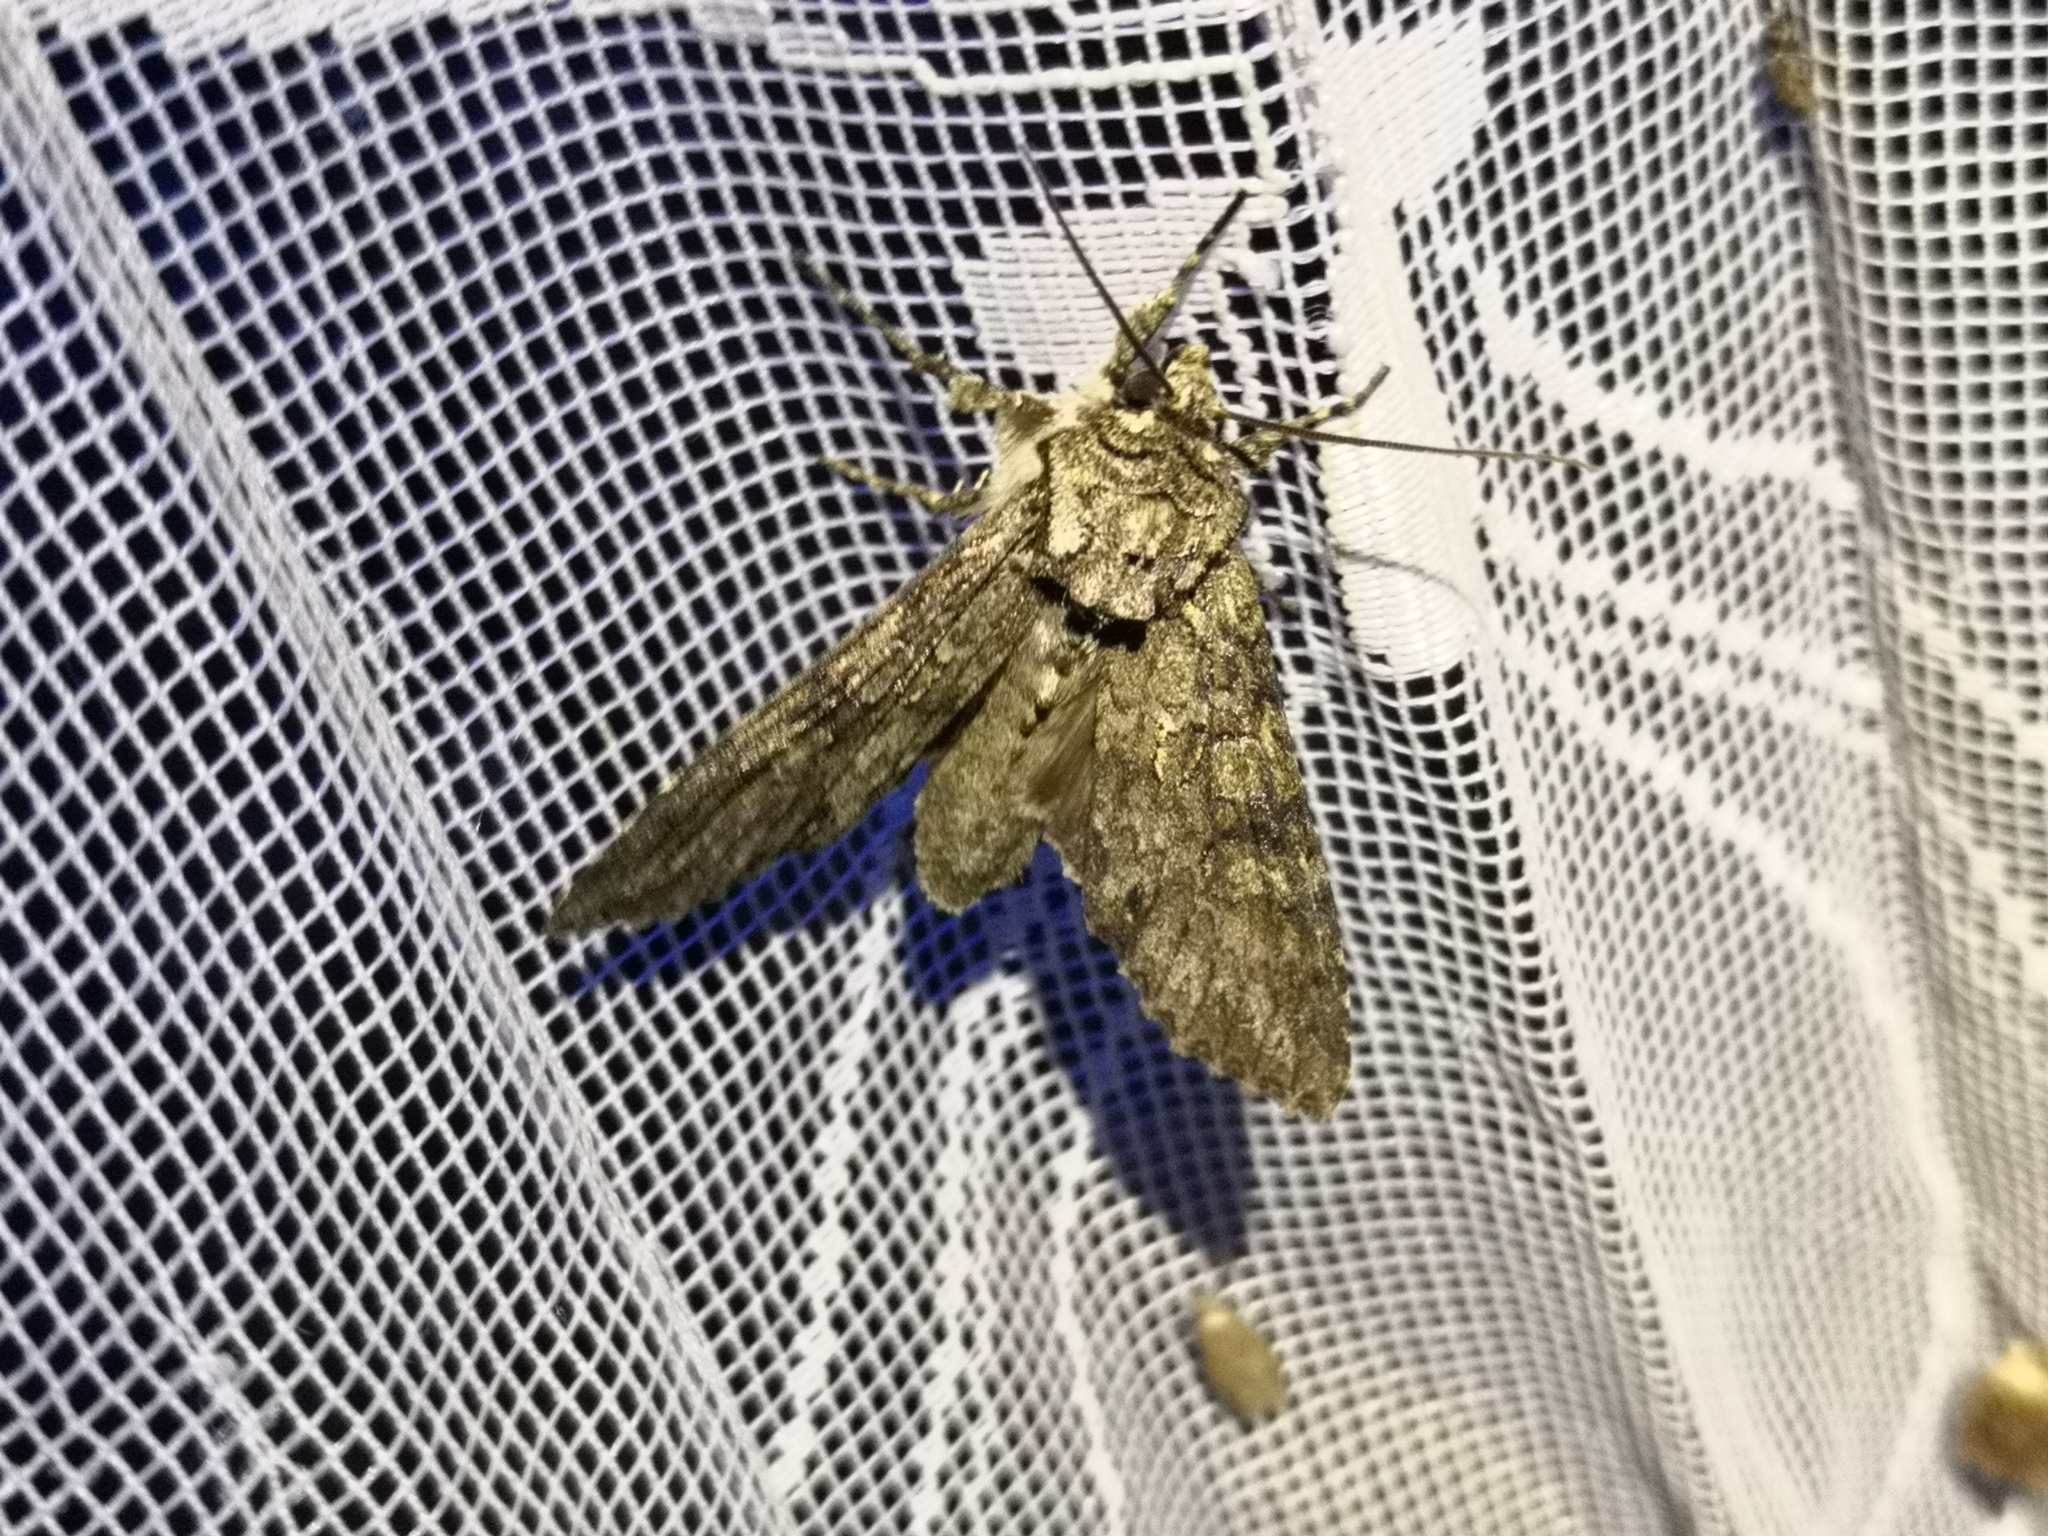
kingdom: Animalia
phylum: Arthropoda
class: Insecta
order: Lepidoptera
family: Noctuidae
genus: Polia
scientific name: Polia nebulosa
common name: Grey arches
